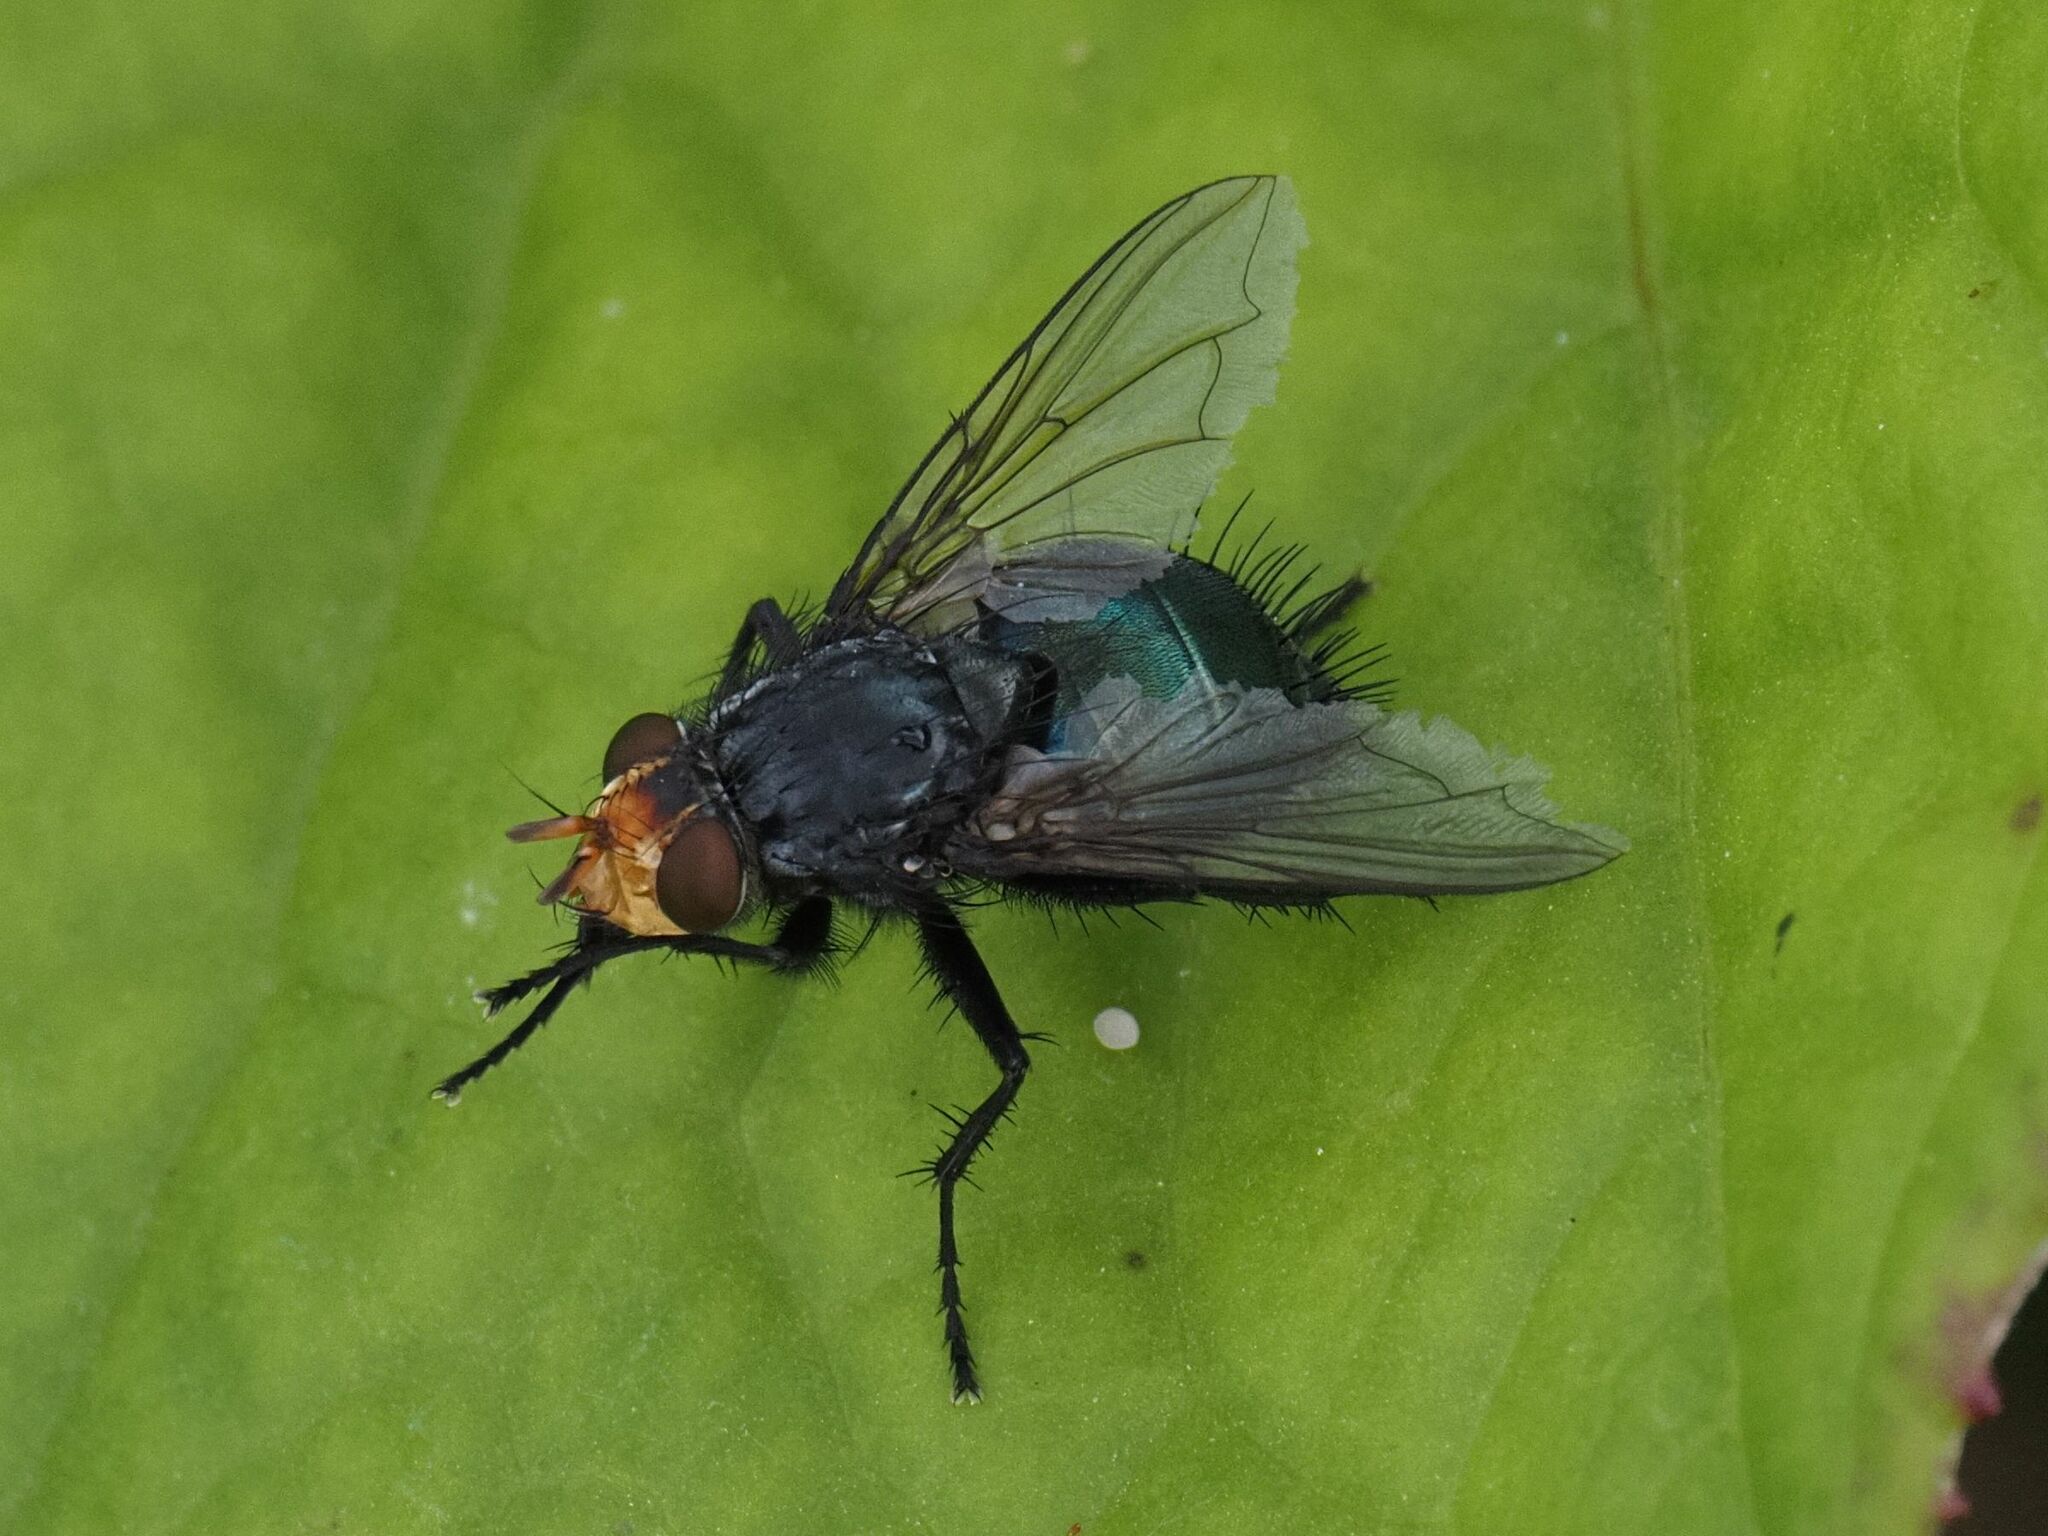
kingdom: Animalia
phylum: Arthropoda
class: Insecta
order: Diptera
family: Calliphoridae
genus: Cynomya
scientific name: Cynomya mortuorum
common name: Bluebottle blow fly
